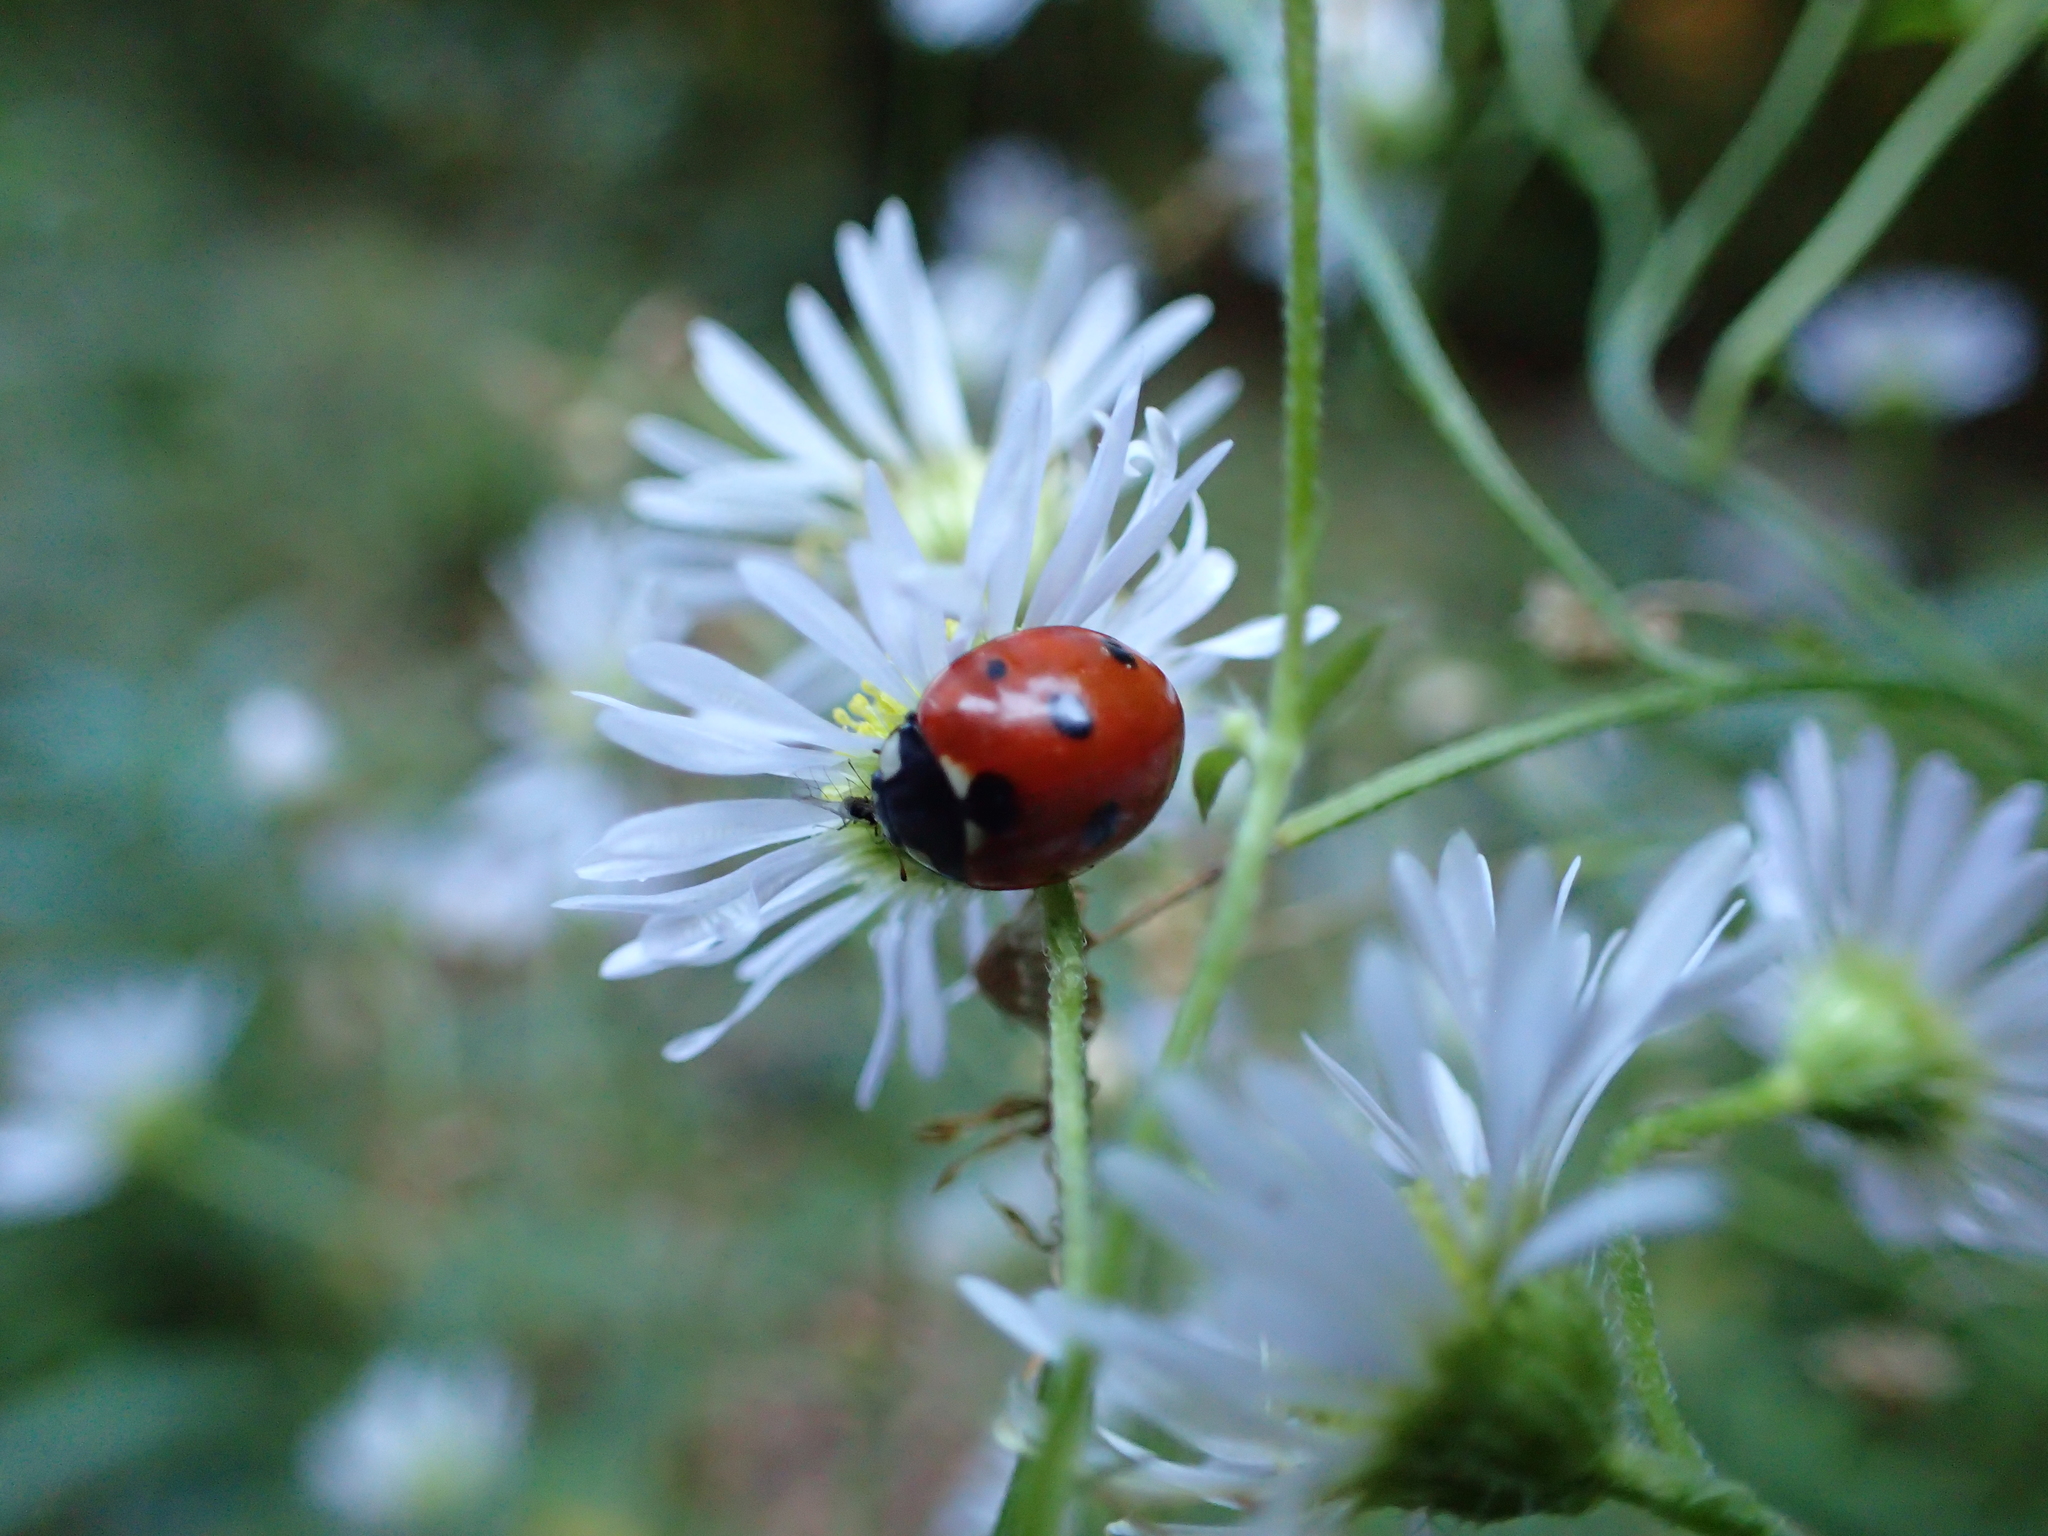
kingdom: Animalia
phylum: Arthropoda
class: Insecta
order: Coleoptera
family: Coccinellidae
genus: Coccinella
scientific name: Coccinella septempunctata
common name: Sevenspotted lady beetle
